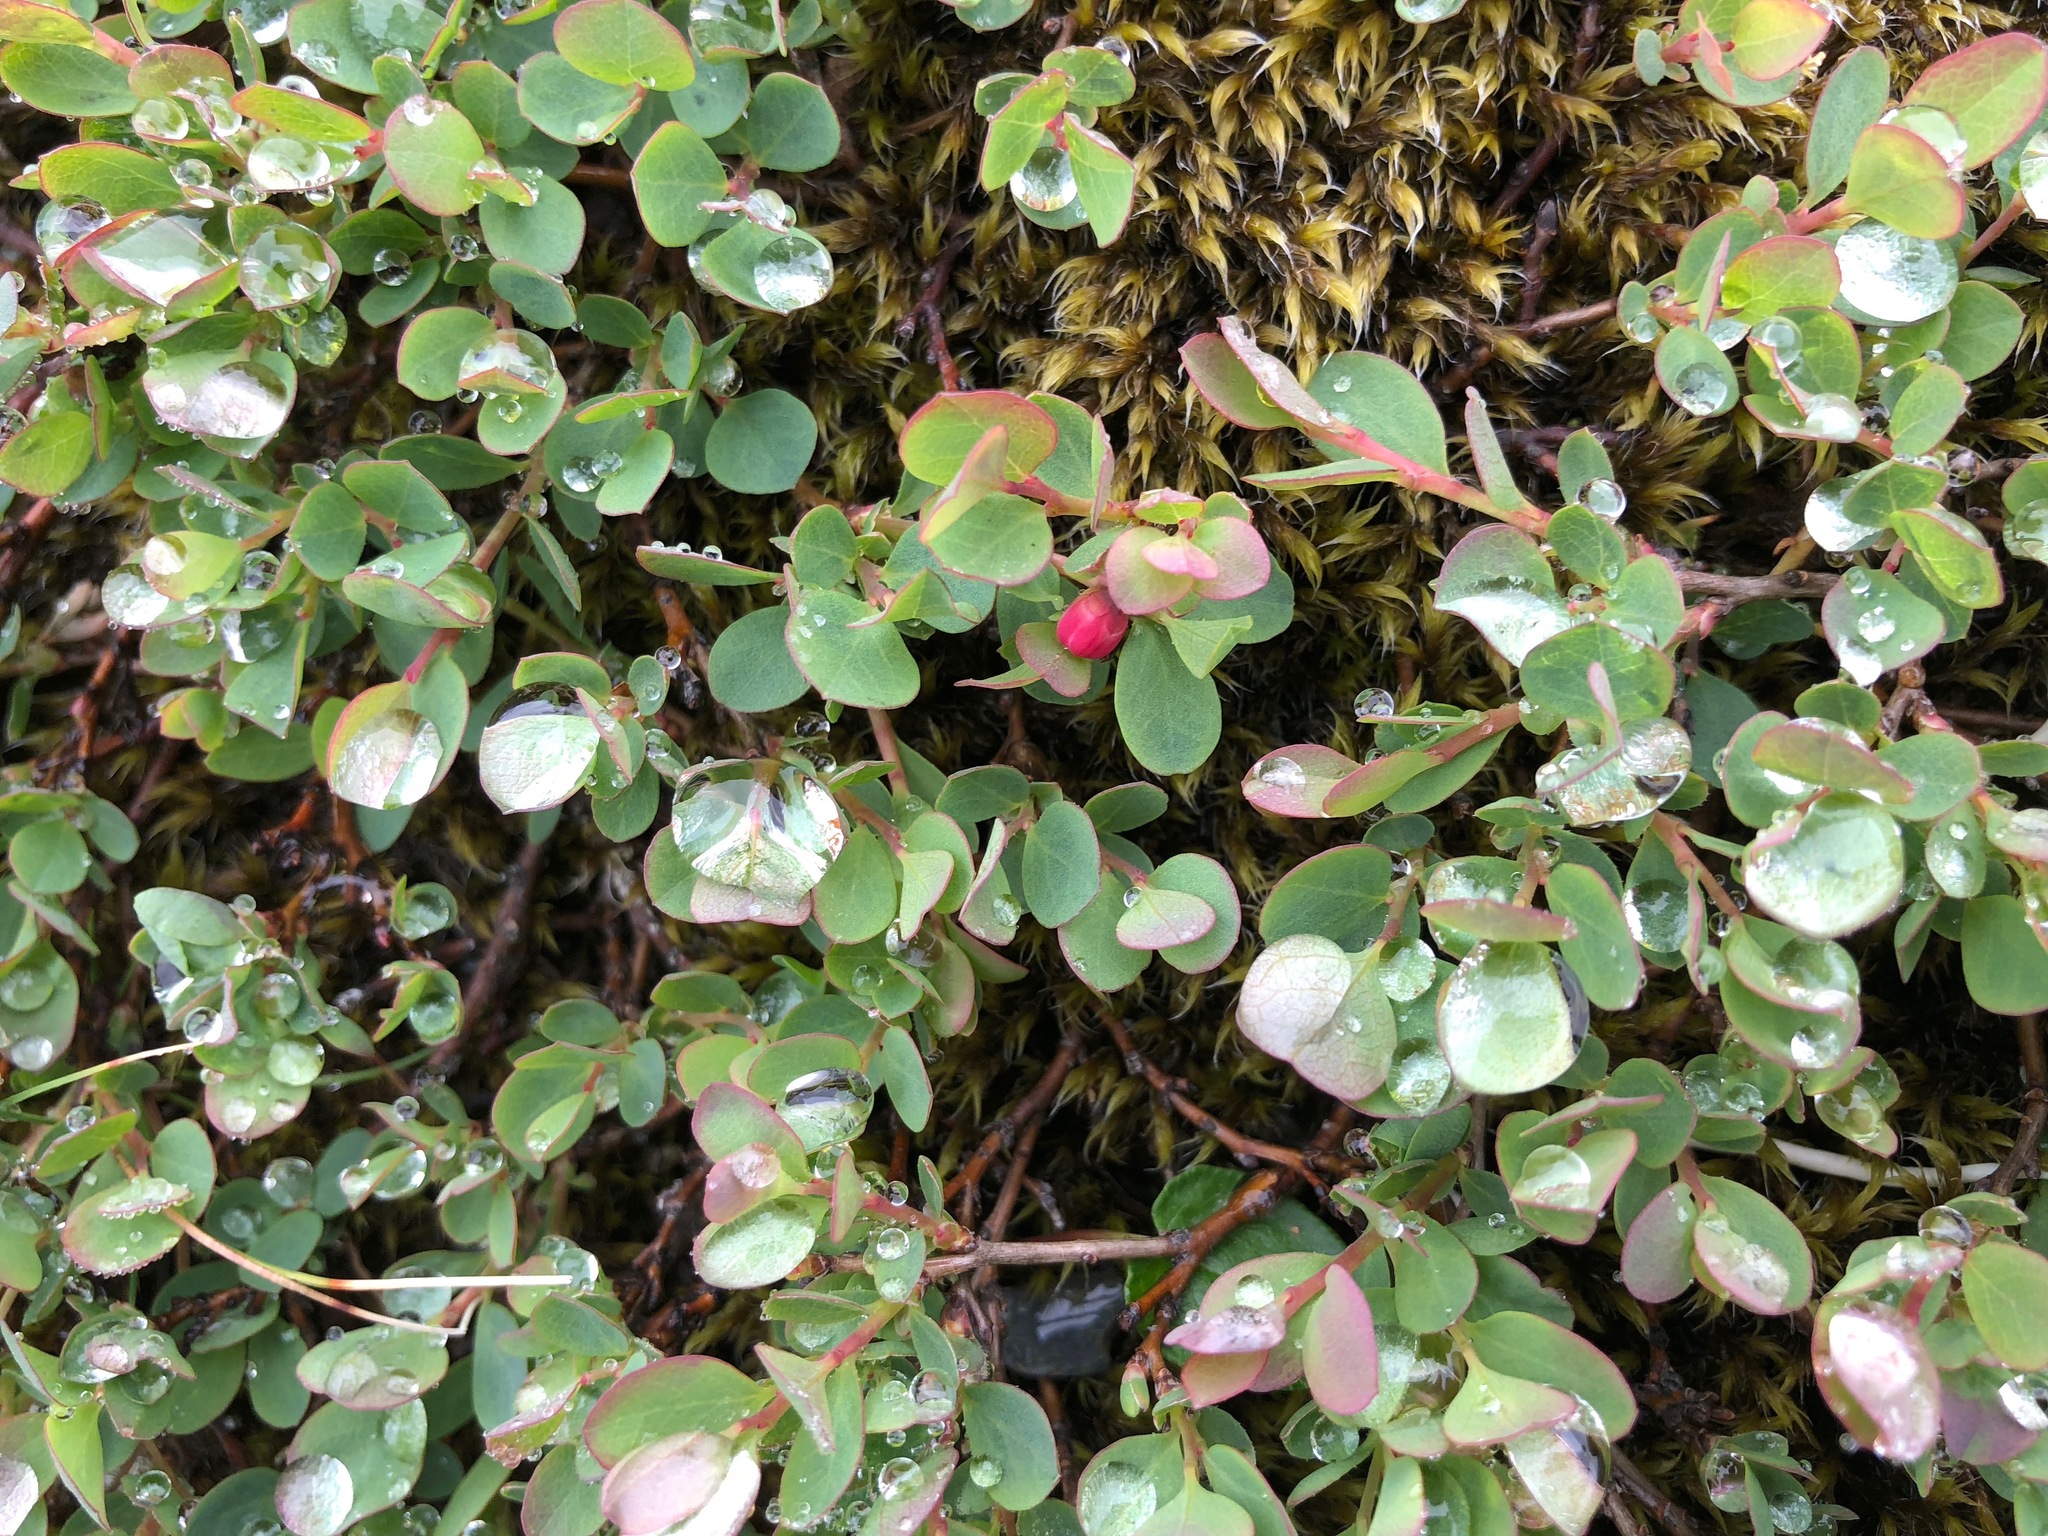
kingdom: Plantae
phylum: Tracheophyta
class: Magnoliopsida
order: Ericales
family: Ericaceae
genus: Vaccinium
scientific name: Vaccinium uliginosum
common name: Bog bilberry
